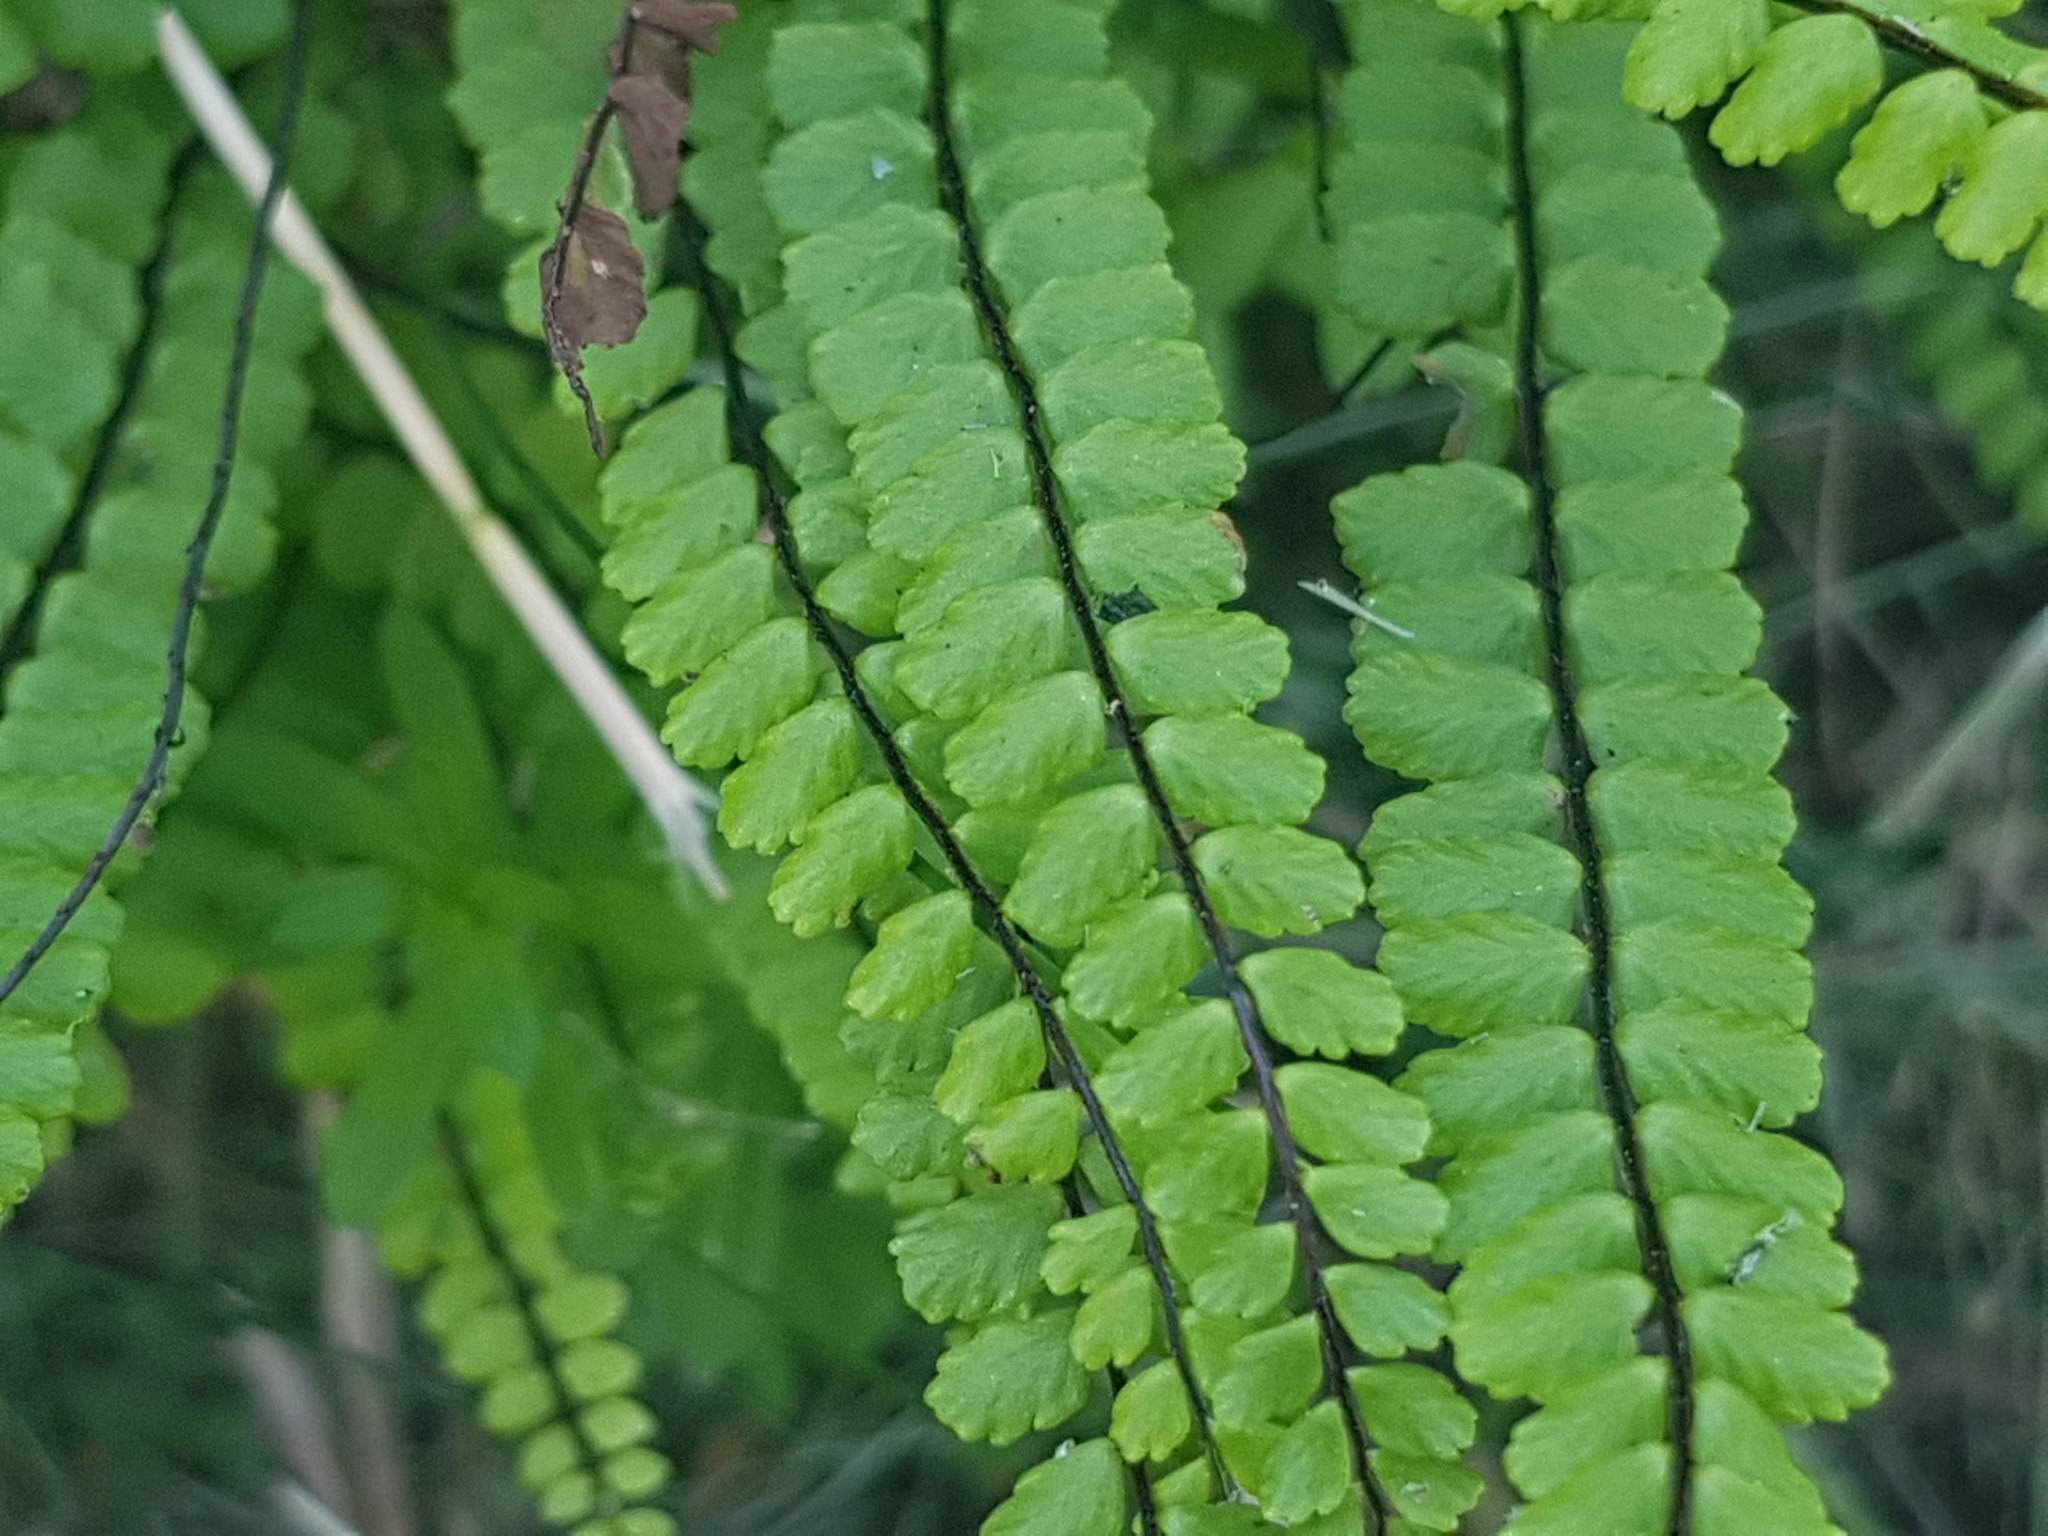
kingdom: Plantae
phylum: Tracheophyta
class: Polypodiopsida
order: Polypodiales
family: Aspleniaceae
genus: Asplenium
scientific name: Asplenium trichomanes
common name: Maidenhair spleenwort
